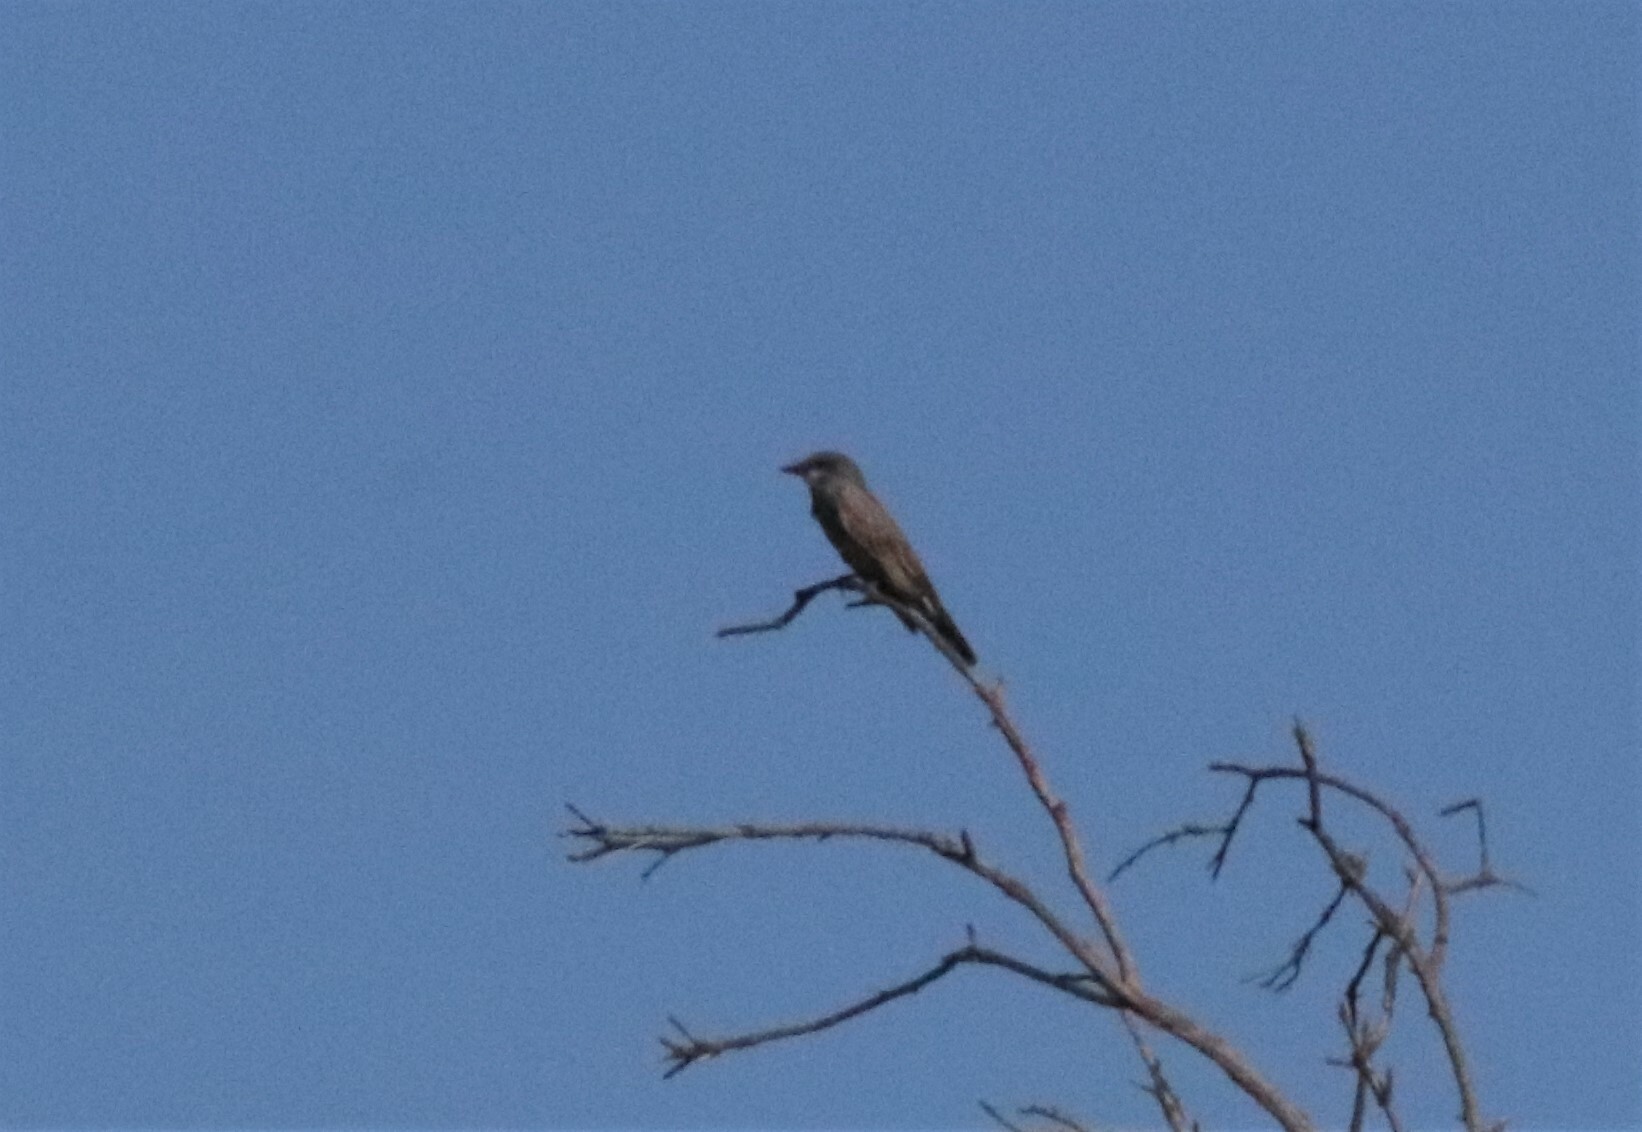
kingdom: Animalia
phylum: Chordata
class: Aves
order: Passeriformes
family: Tyrannidae
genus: Tyrannus
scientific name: Tyrannus vociferans
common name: Cassin's kingbird
